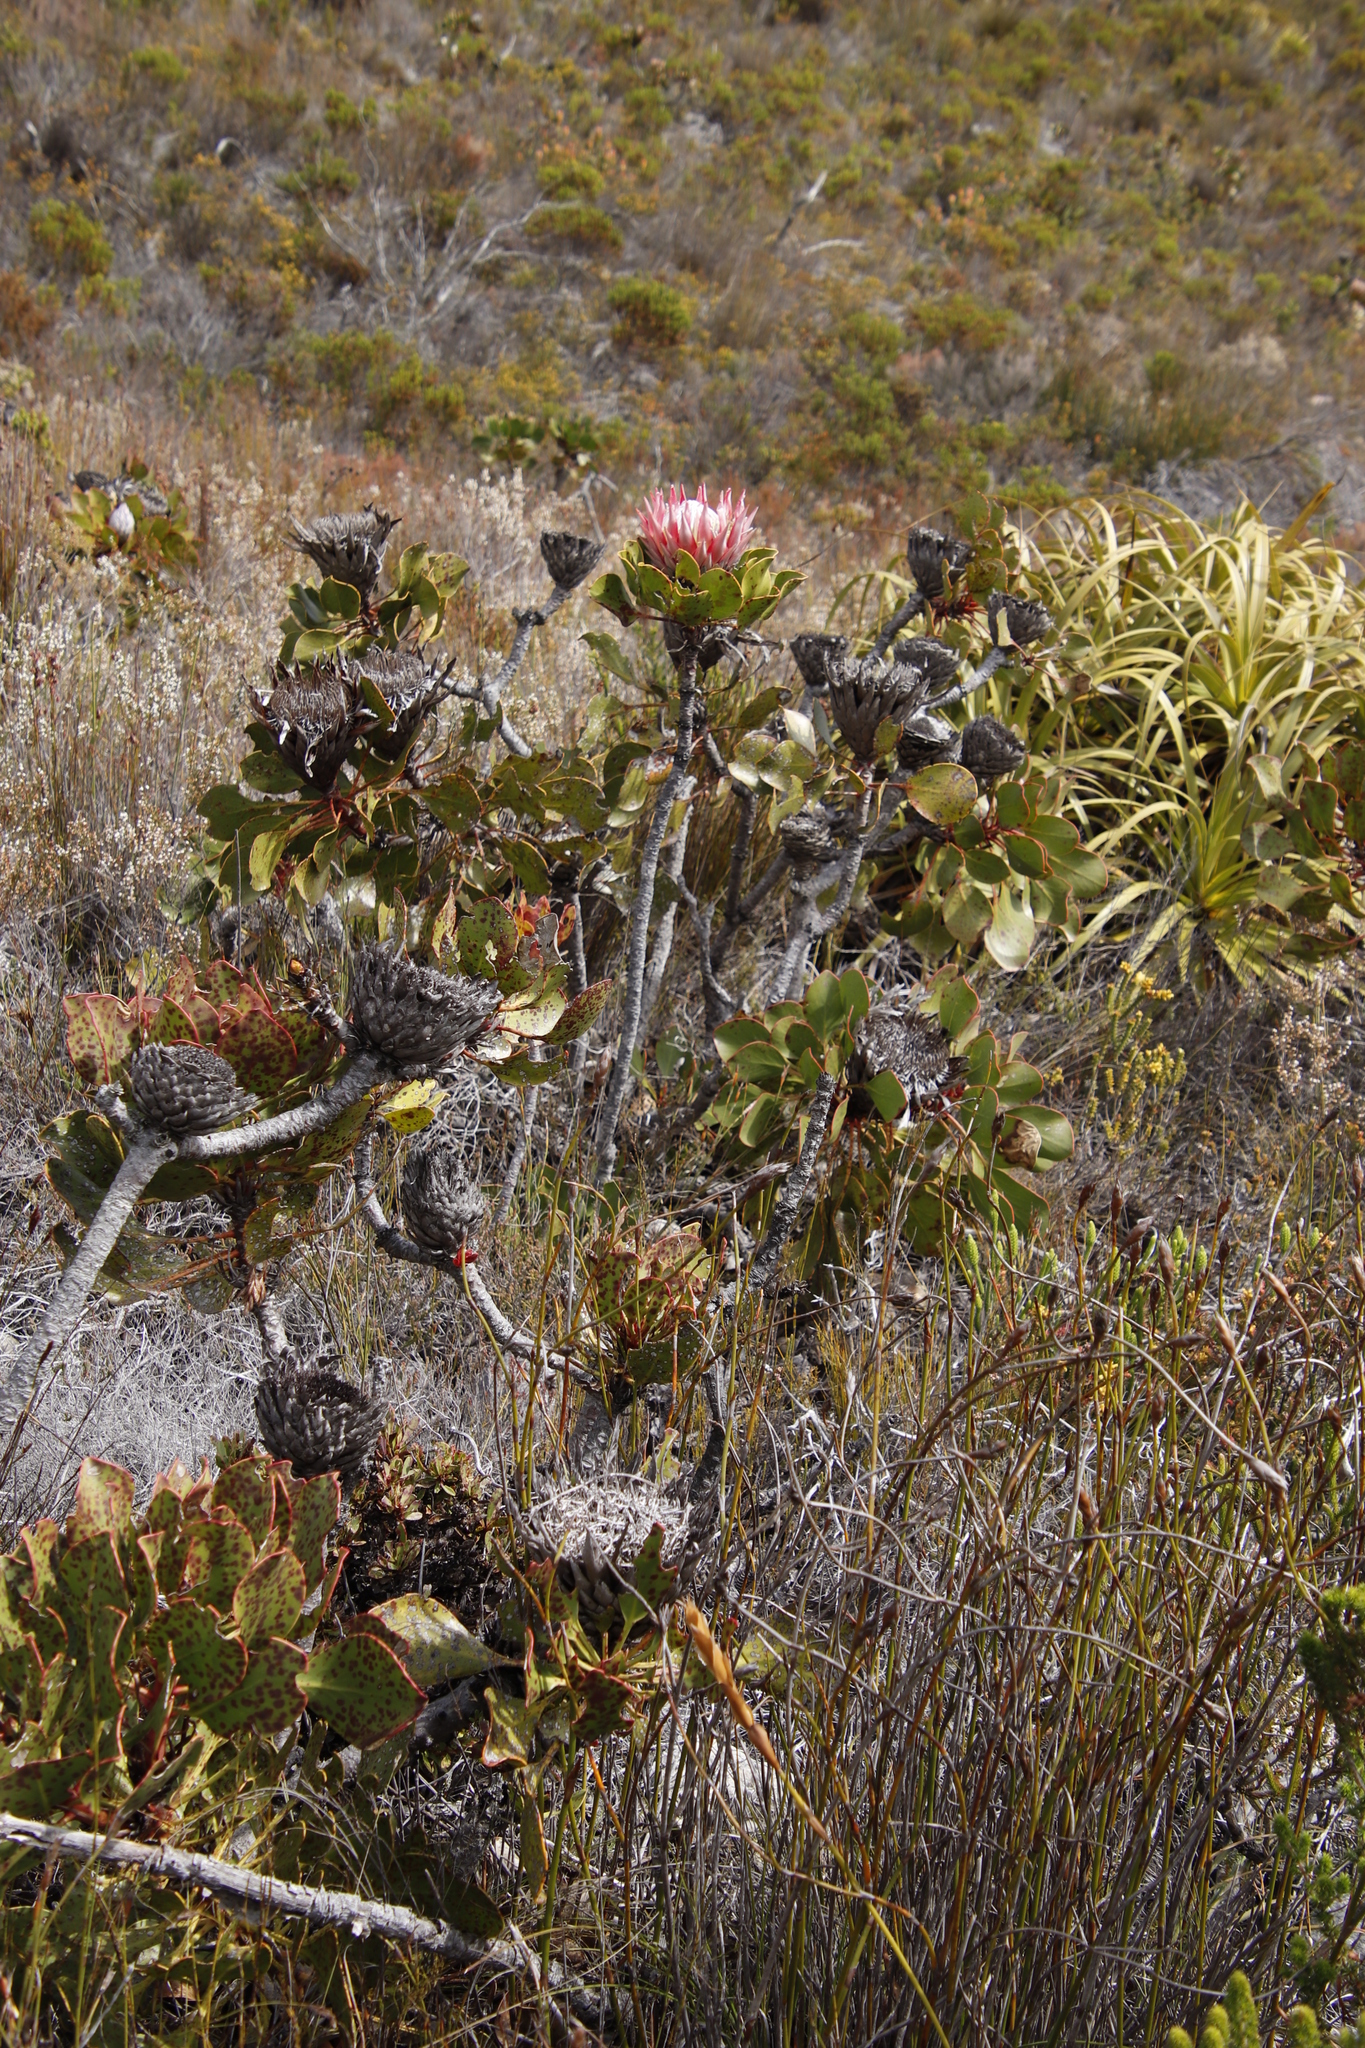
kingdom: Plantae
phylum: Tracheophyta
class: Magnoliopsida
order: Proteales
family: Proteaceae
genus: Protea
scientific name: Protea cynaroides
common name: King protea
